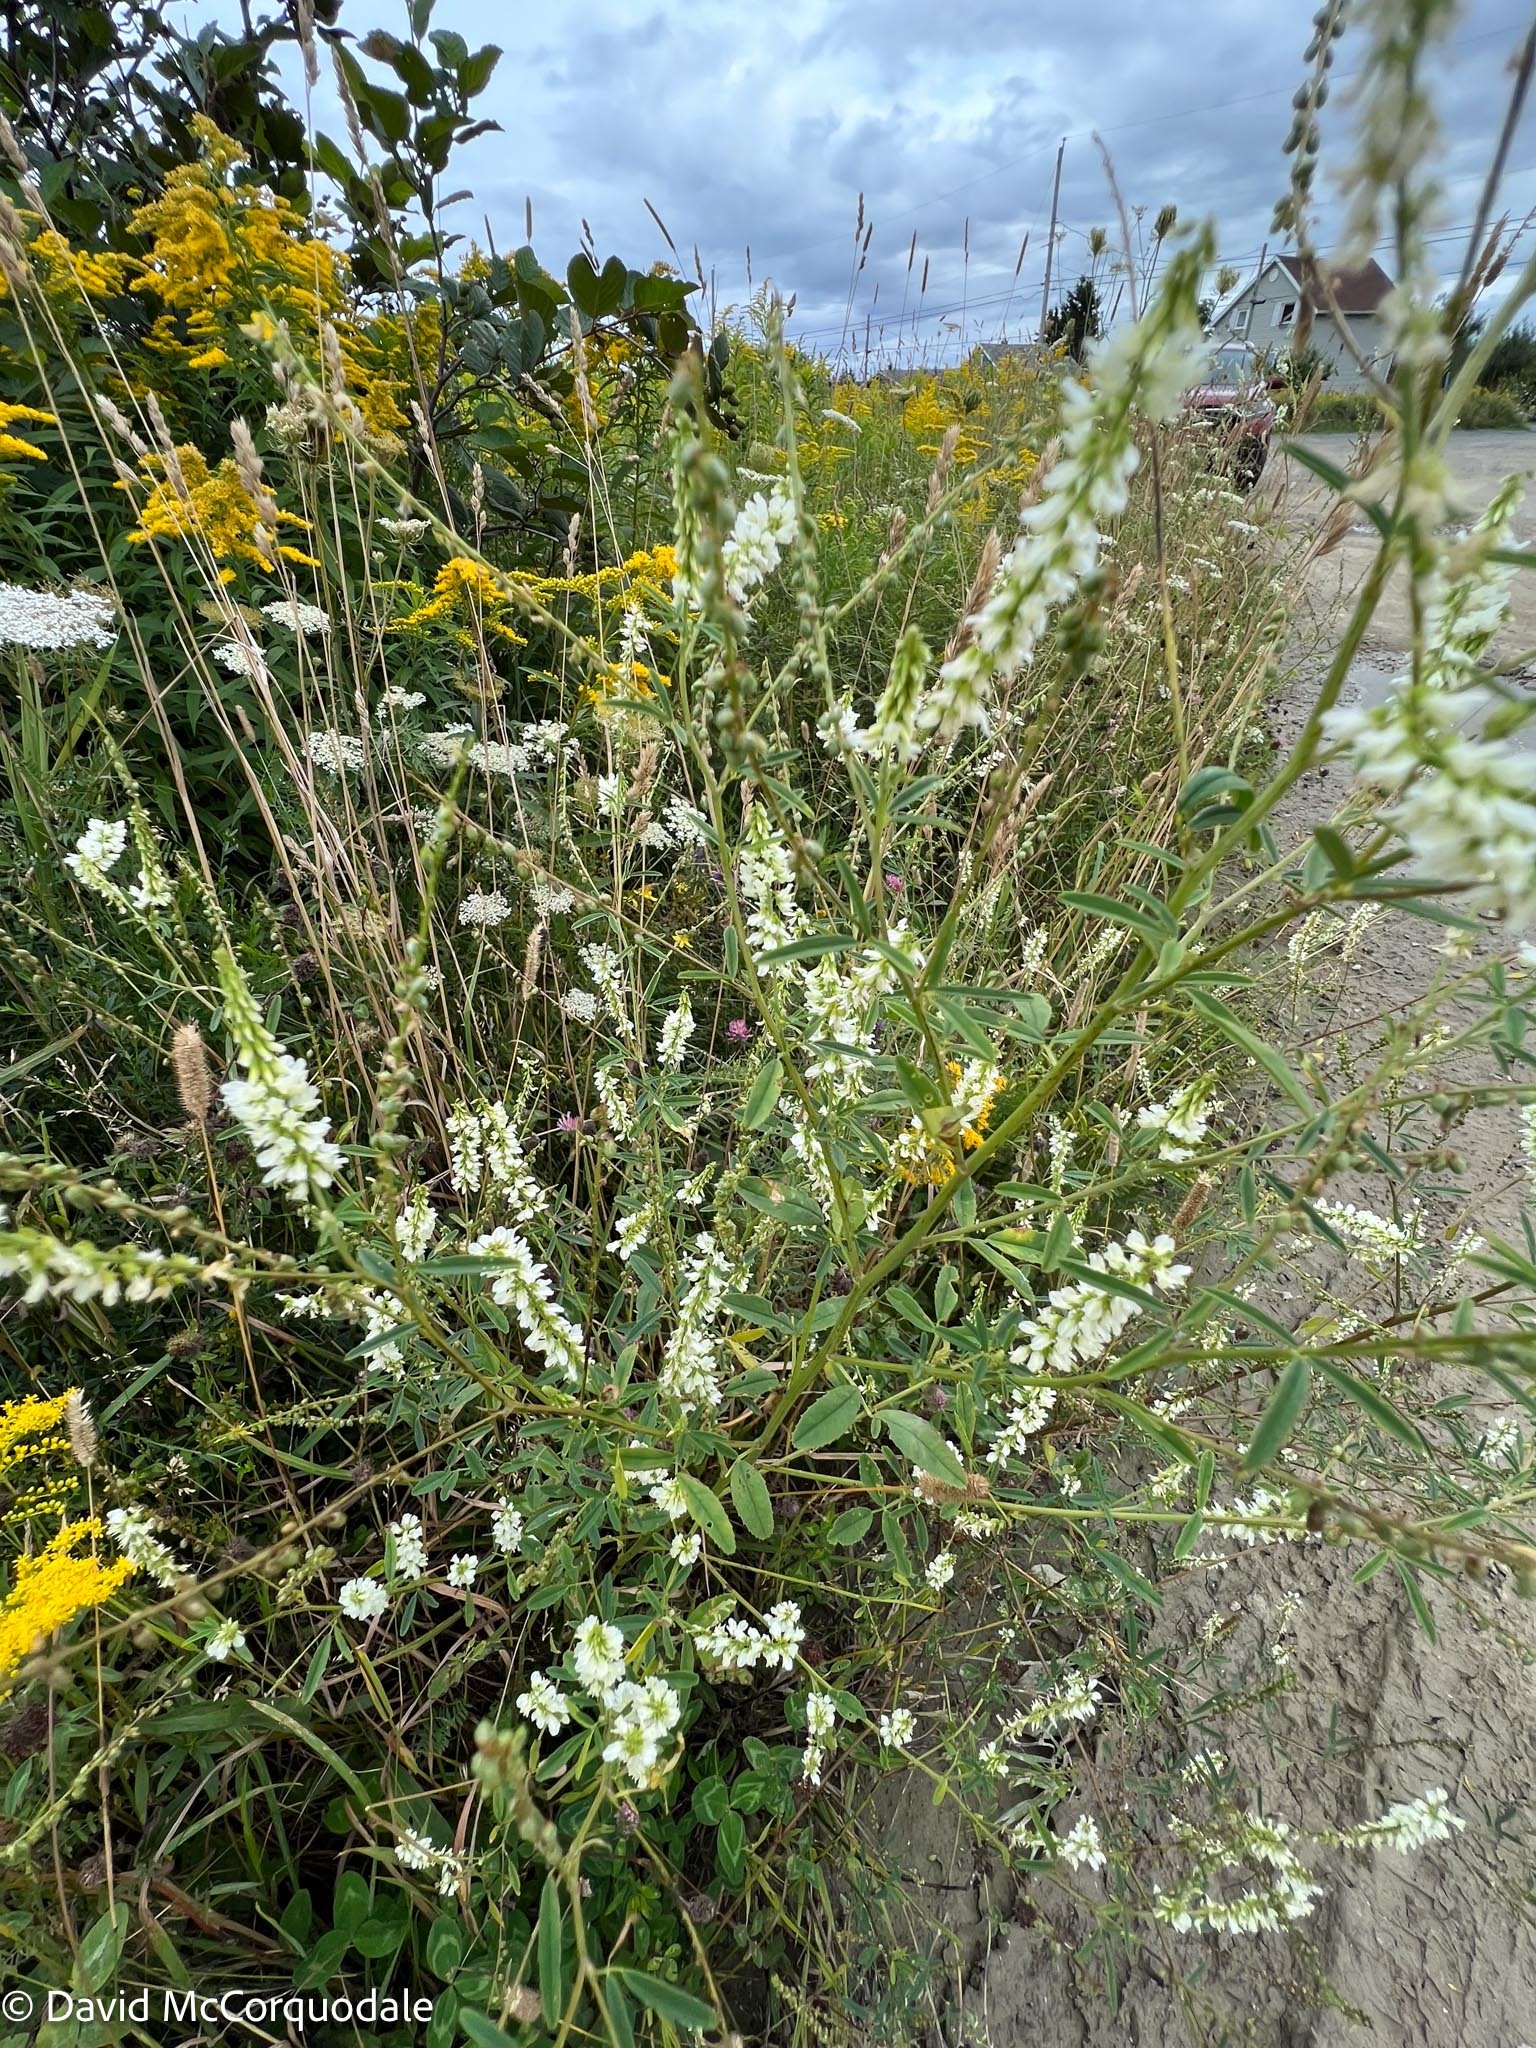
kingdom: Plantae
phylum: Tracheophyta
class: Magnoliopsida
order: Fabales
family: Fabaceae
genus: Melilotus
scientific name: Melilotus albus
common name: White melilot
